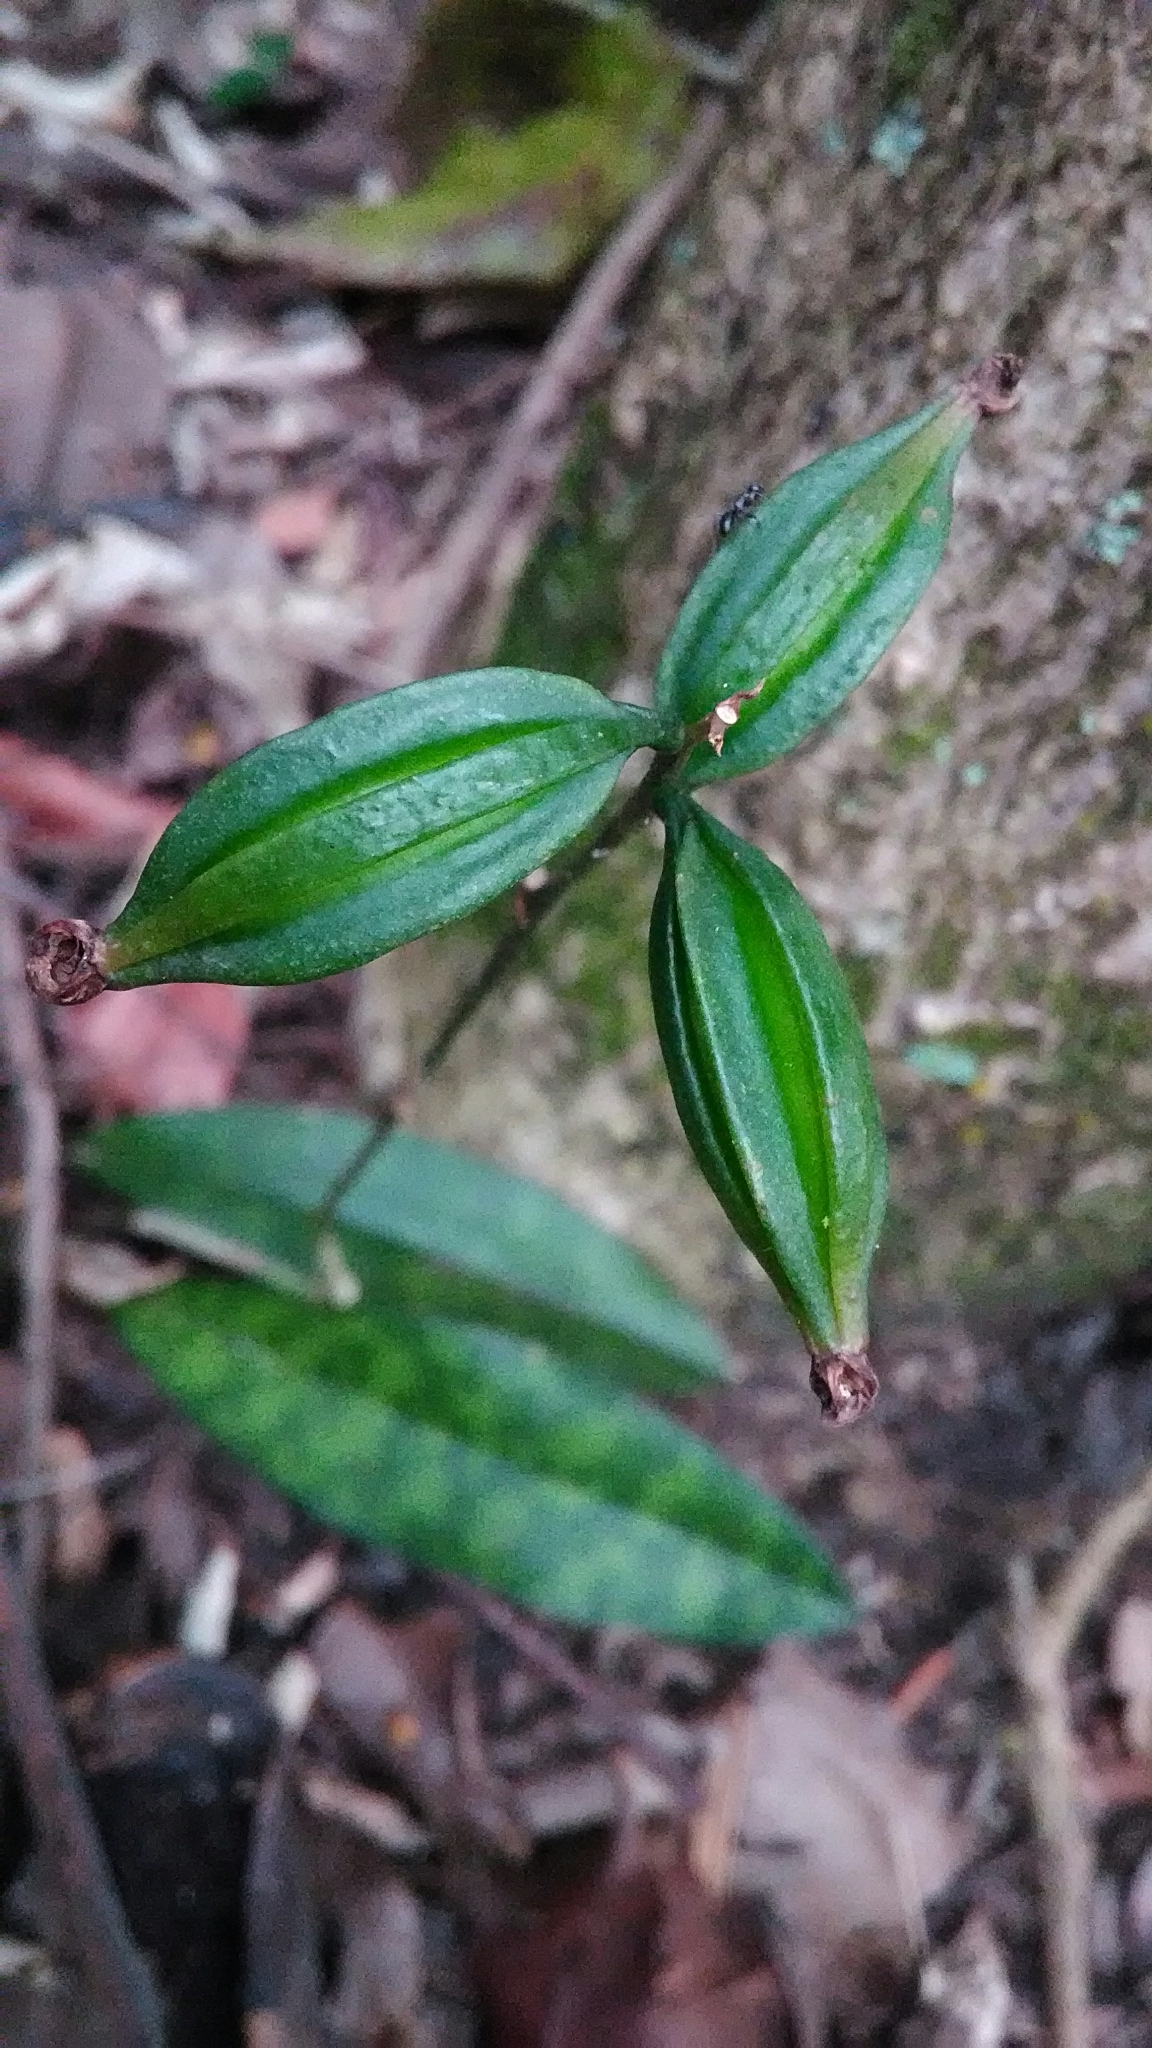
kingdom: Plantae
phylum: Tracheophyta
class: Liliopsida
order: Asparagales
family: Orchidaceae
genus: Eulophia
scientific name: Eulophia maculata
